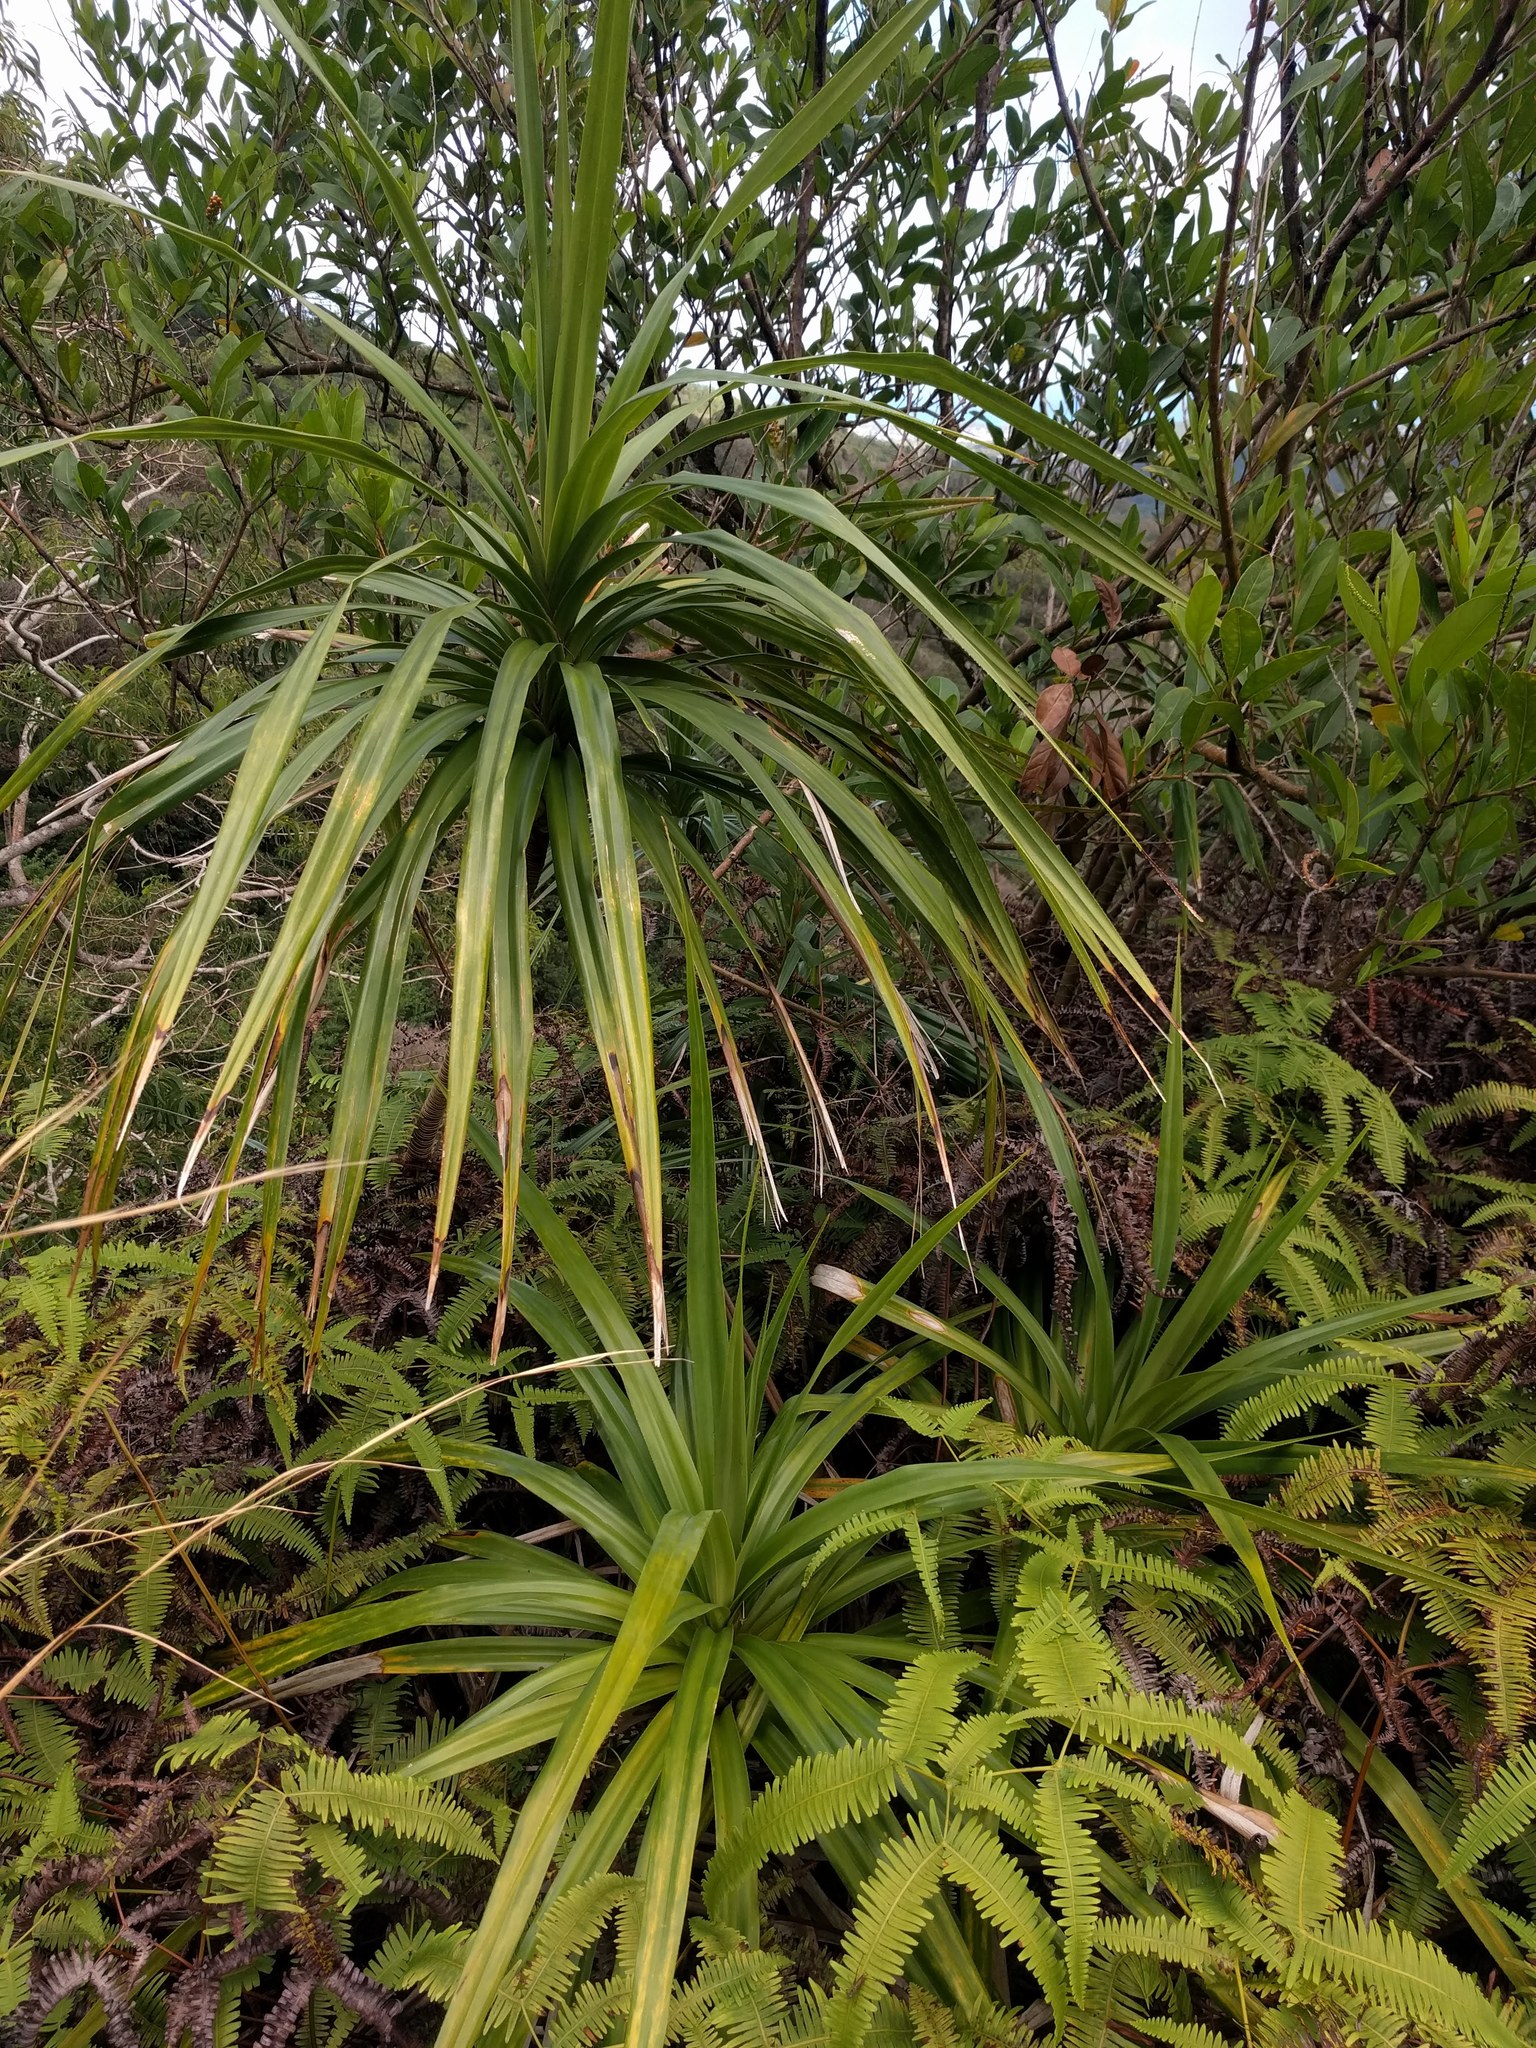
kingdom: Plantae
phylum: Tracheophyta
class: Liliopsida
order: Pandanales
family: Pandanaceae
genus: Freycinetia
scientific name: Freycinetia arborea
